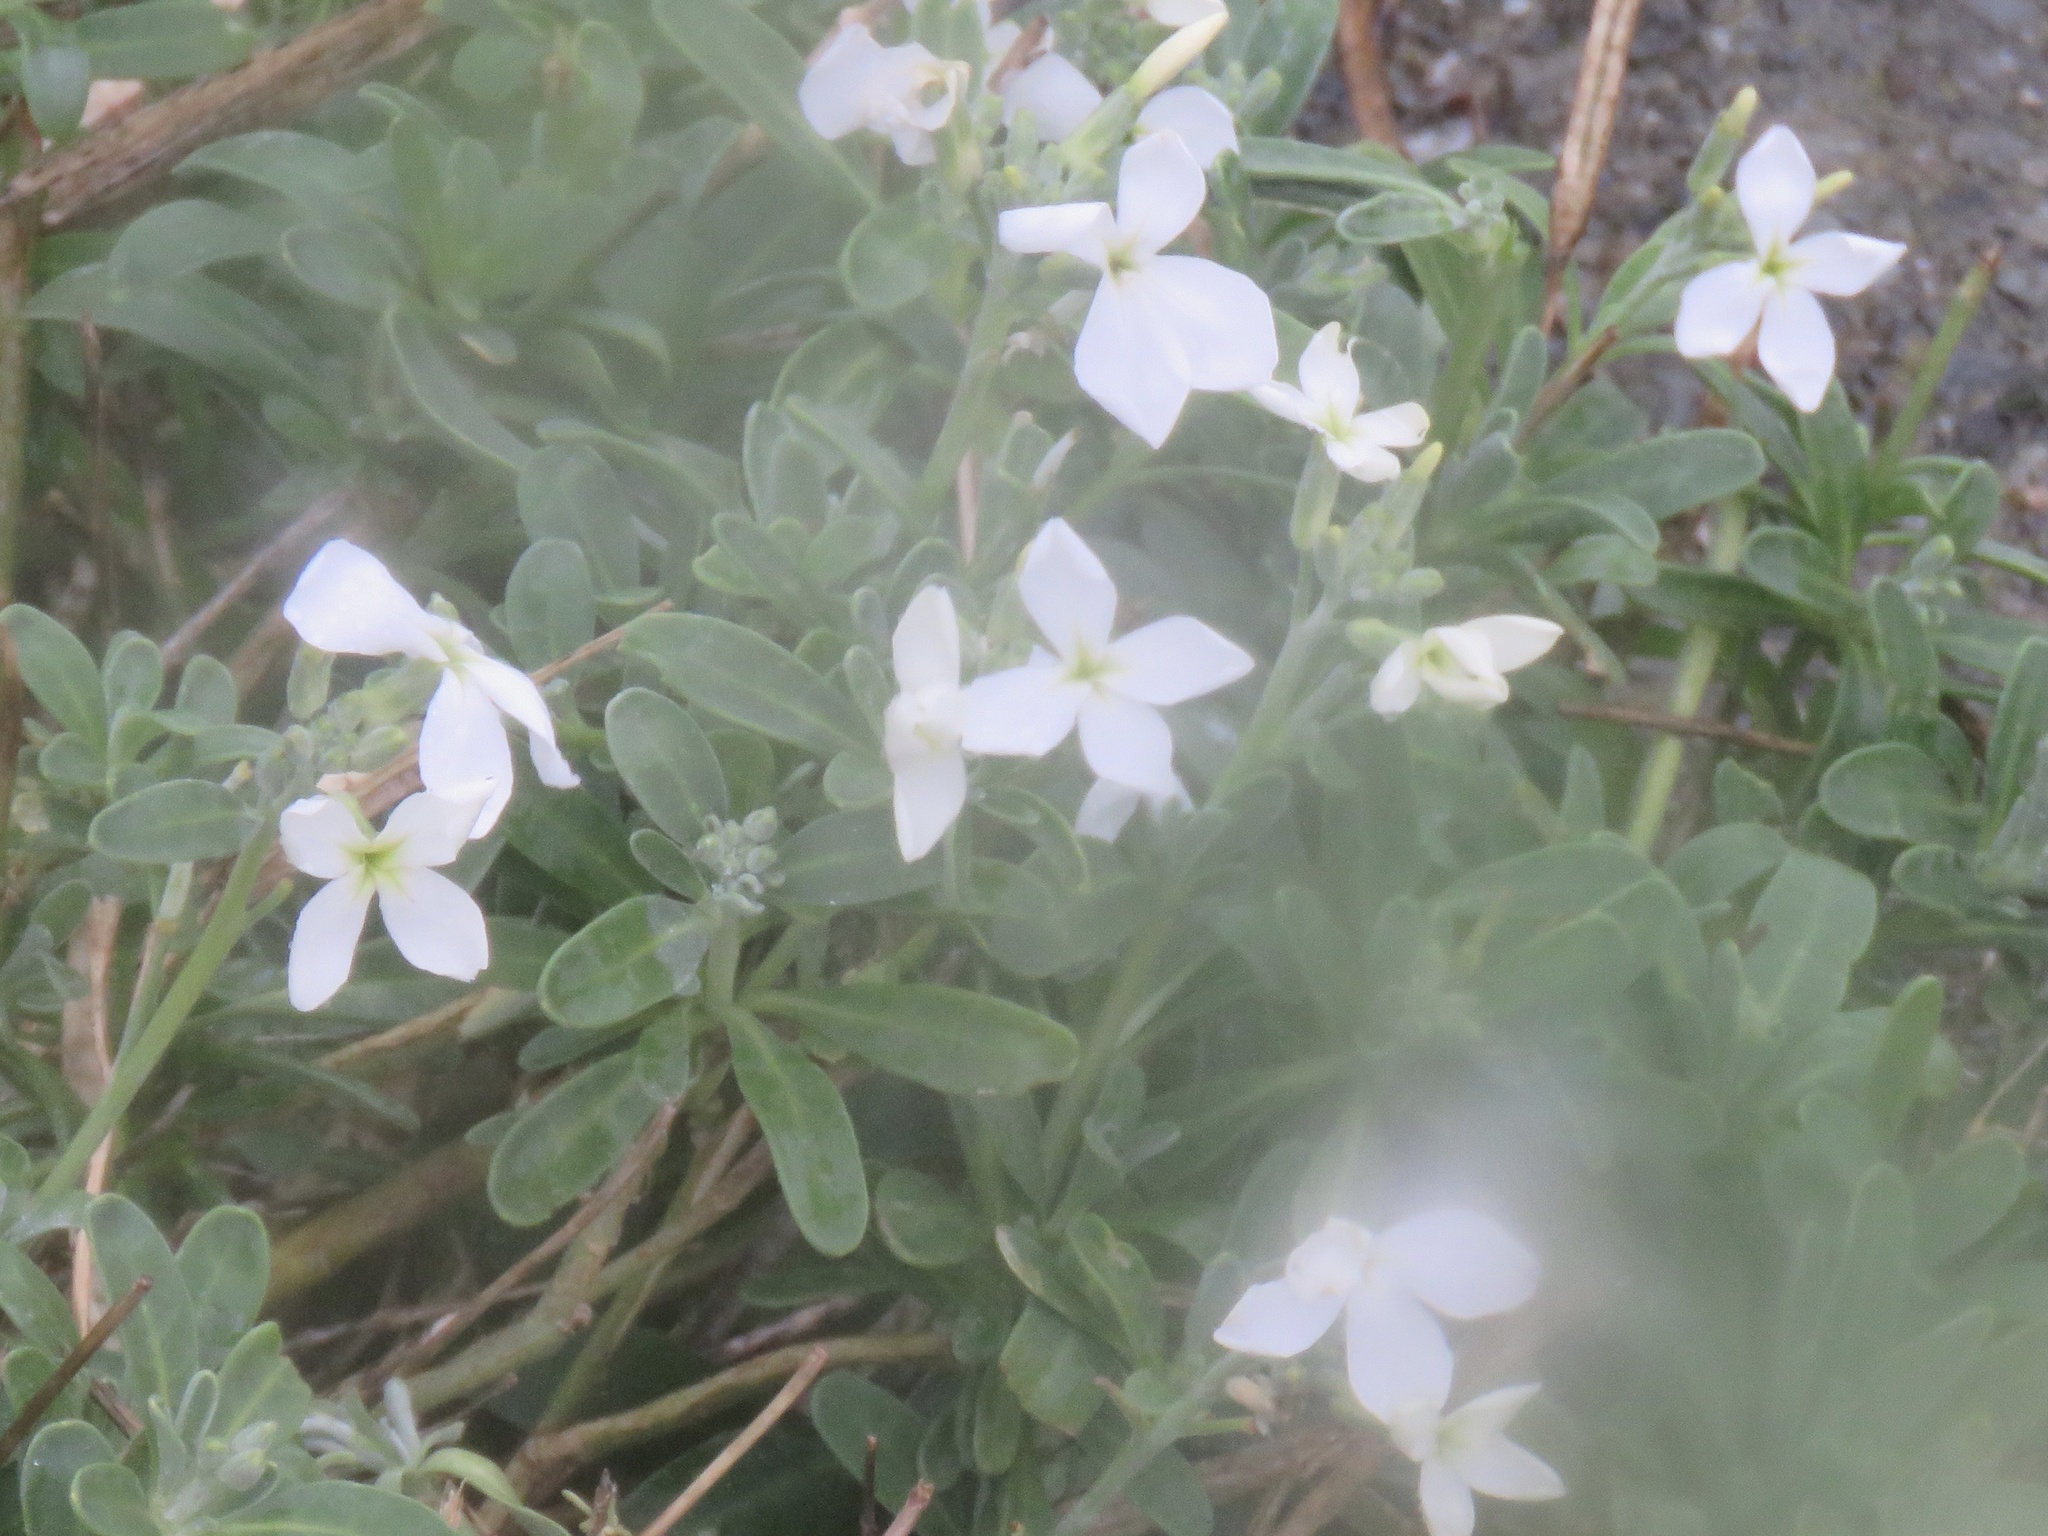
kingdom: Plantae
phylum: Tracheophyta
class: Magnoliopsida
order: Brassicales
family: Brassicaceae
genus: Matthiola
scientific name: Matthiola incana
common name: Hoary stock
